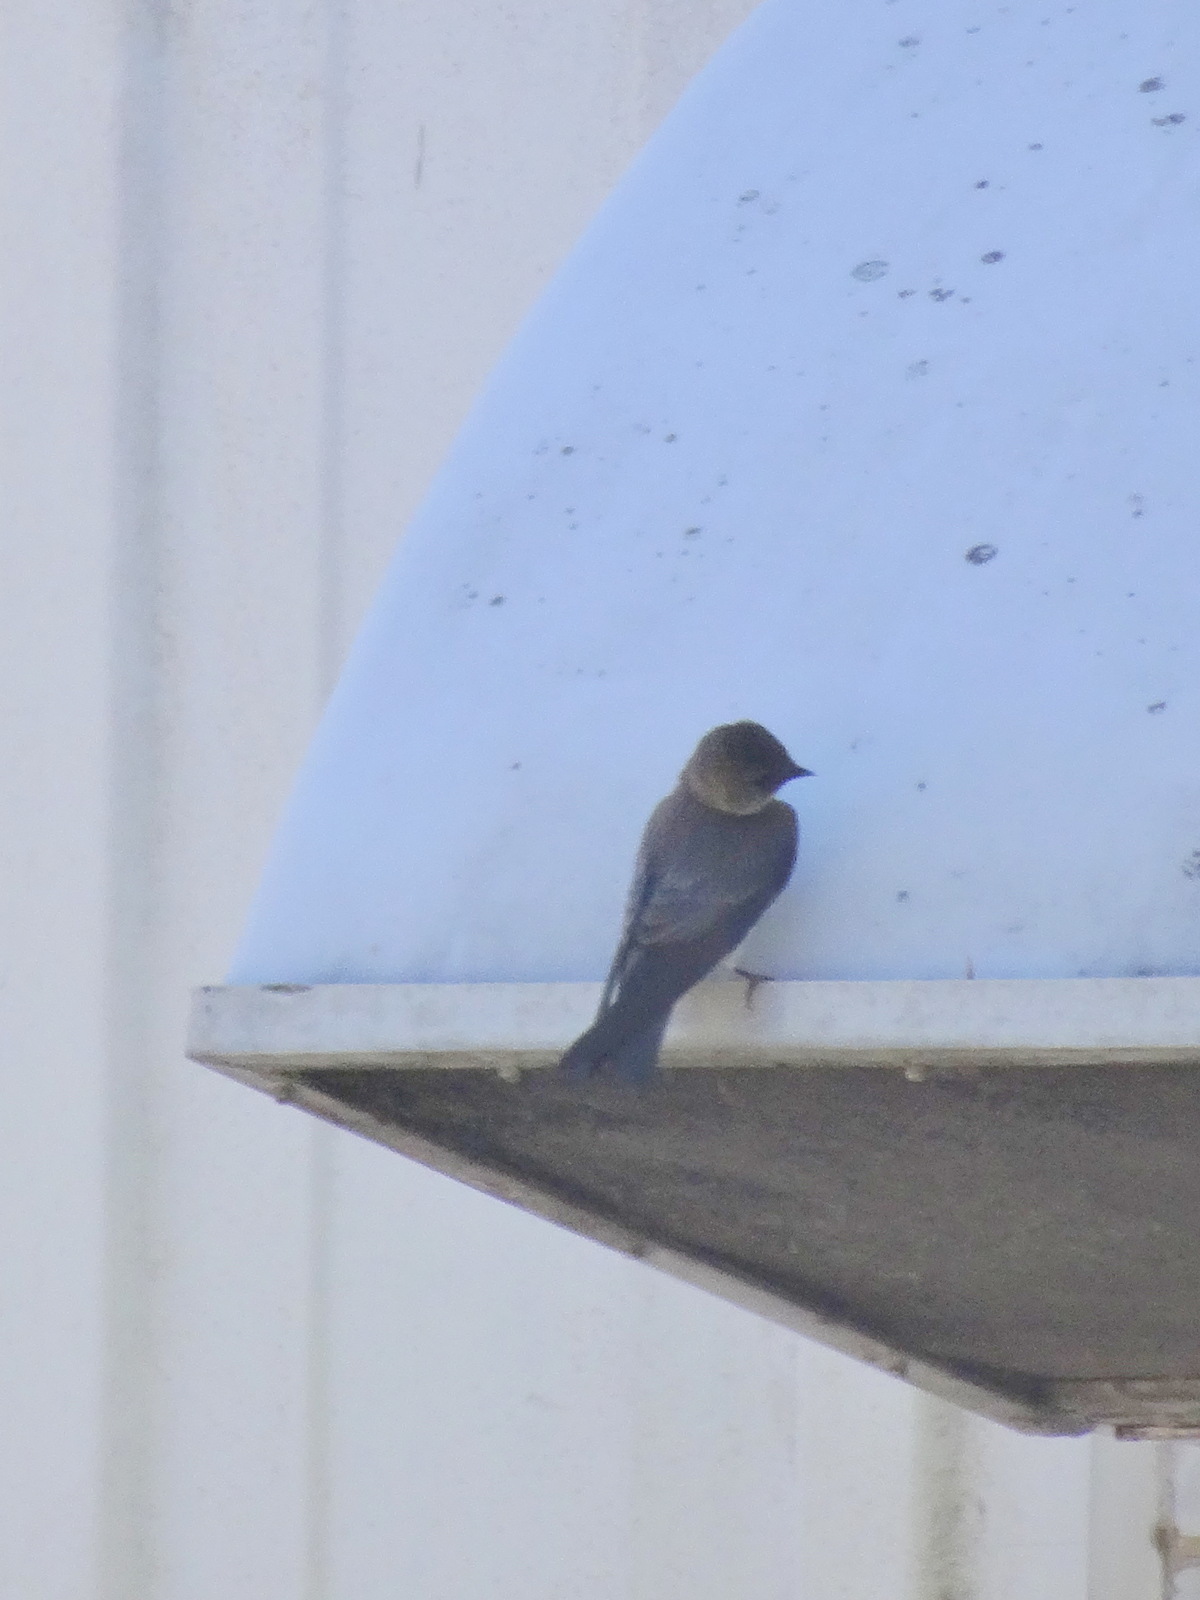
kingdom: Animalia
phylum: Chordata
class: Aves
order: Passeriformes
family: Hirundinidae
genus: Tachycineta
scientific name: Tachycineta bicolor
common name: Tree swallow
